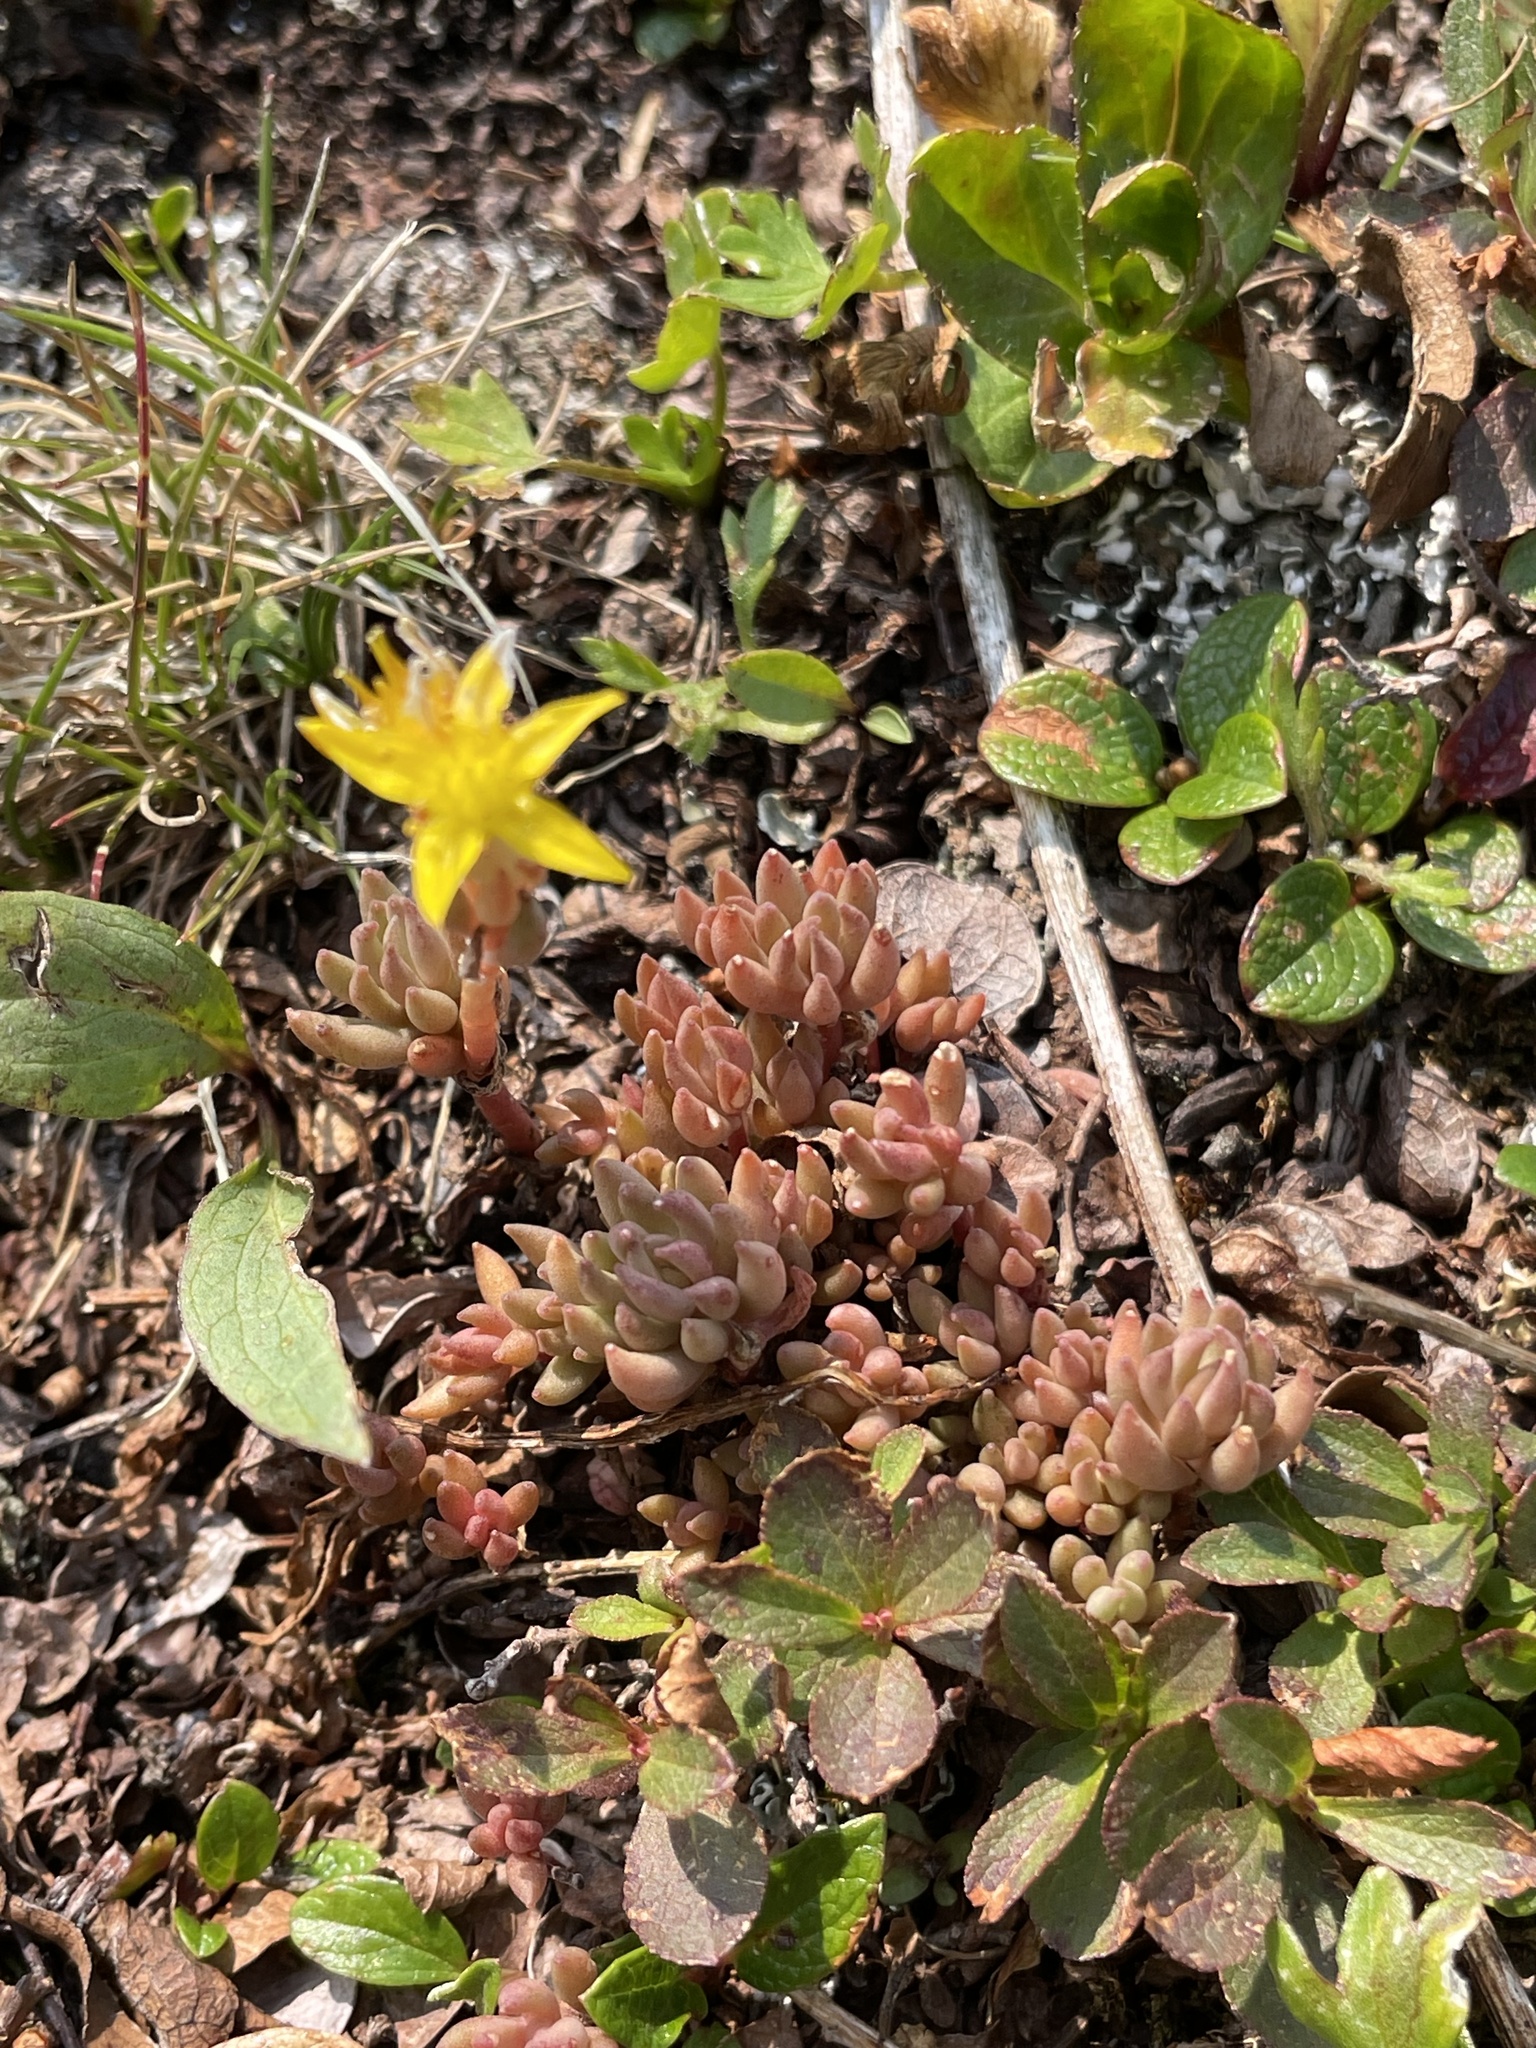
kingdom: Plantae
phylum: Tracheophyta
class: Magnoliopsida
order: Saxifragales
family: Crassulaceae
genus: Sedum
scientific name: Sedum lanceolatum
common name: Common stonecrop
